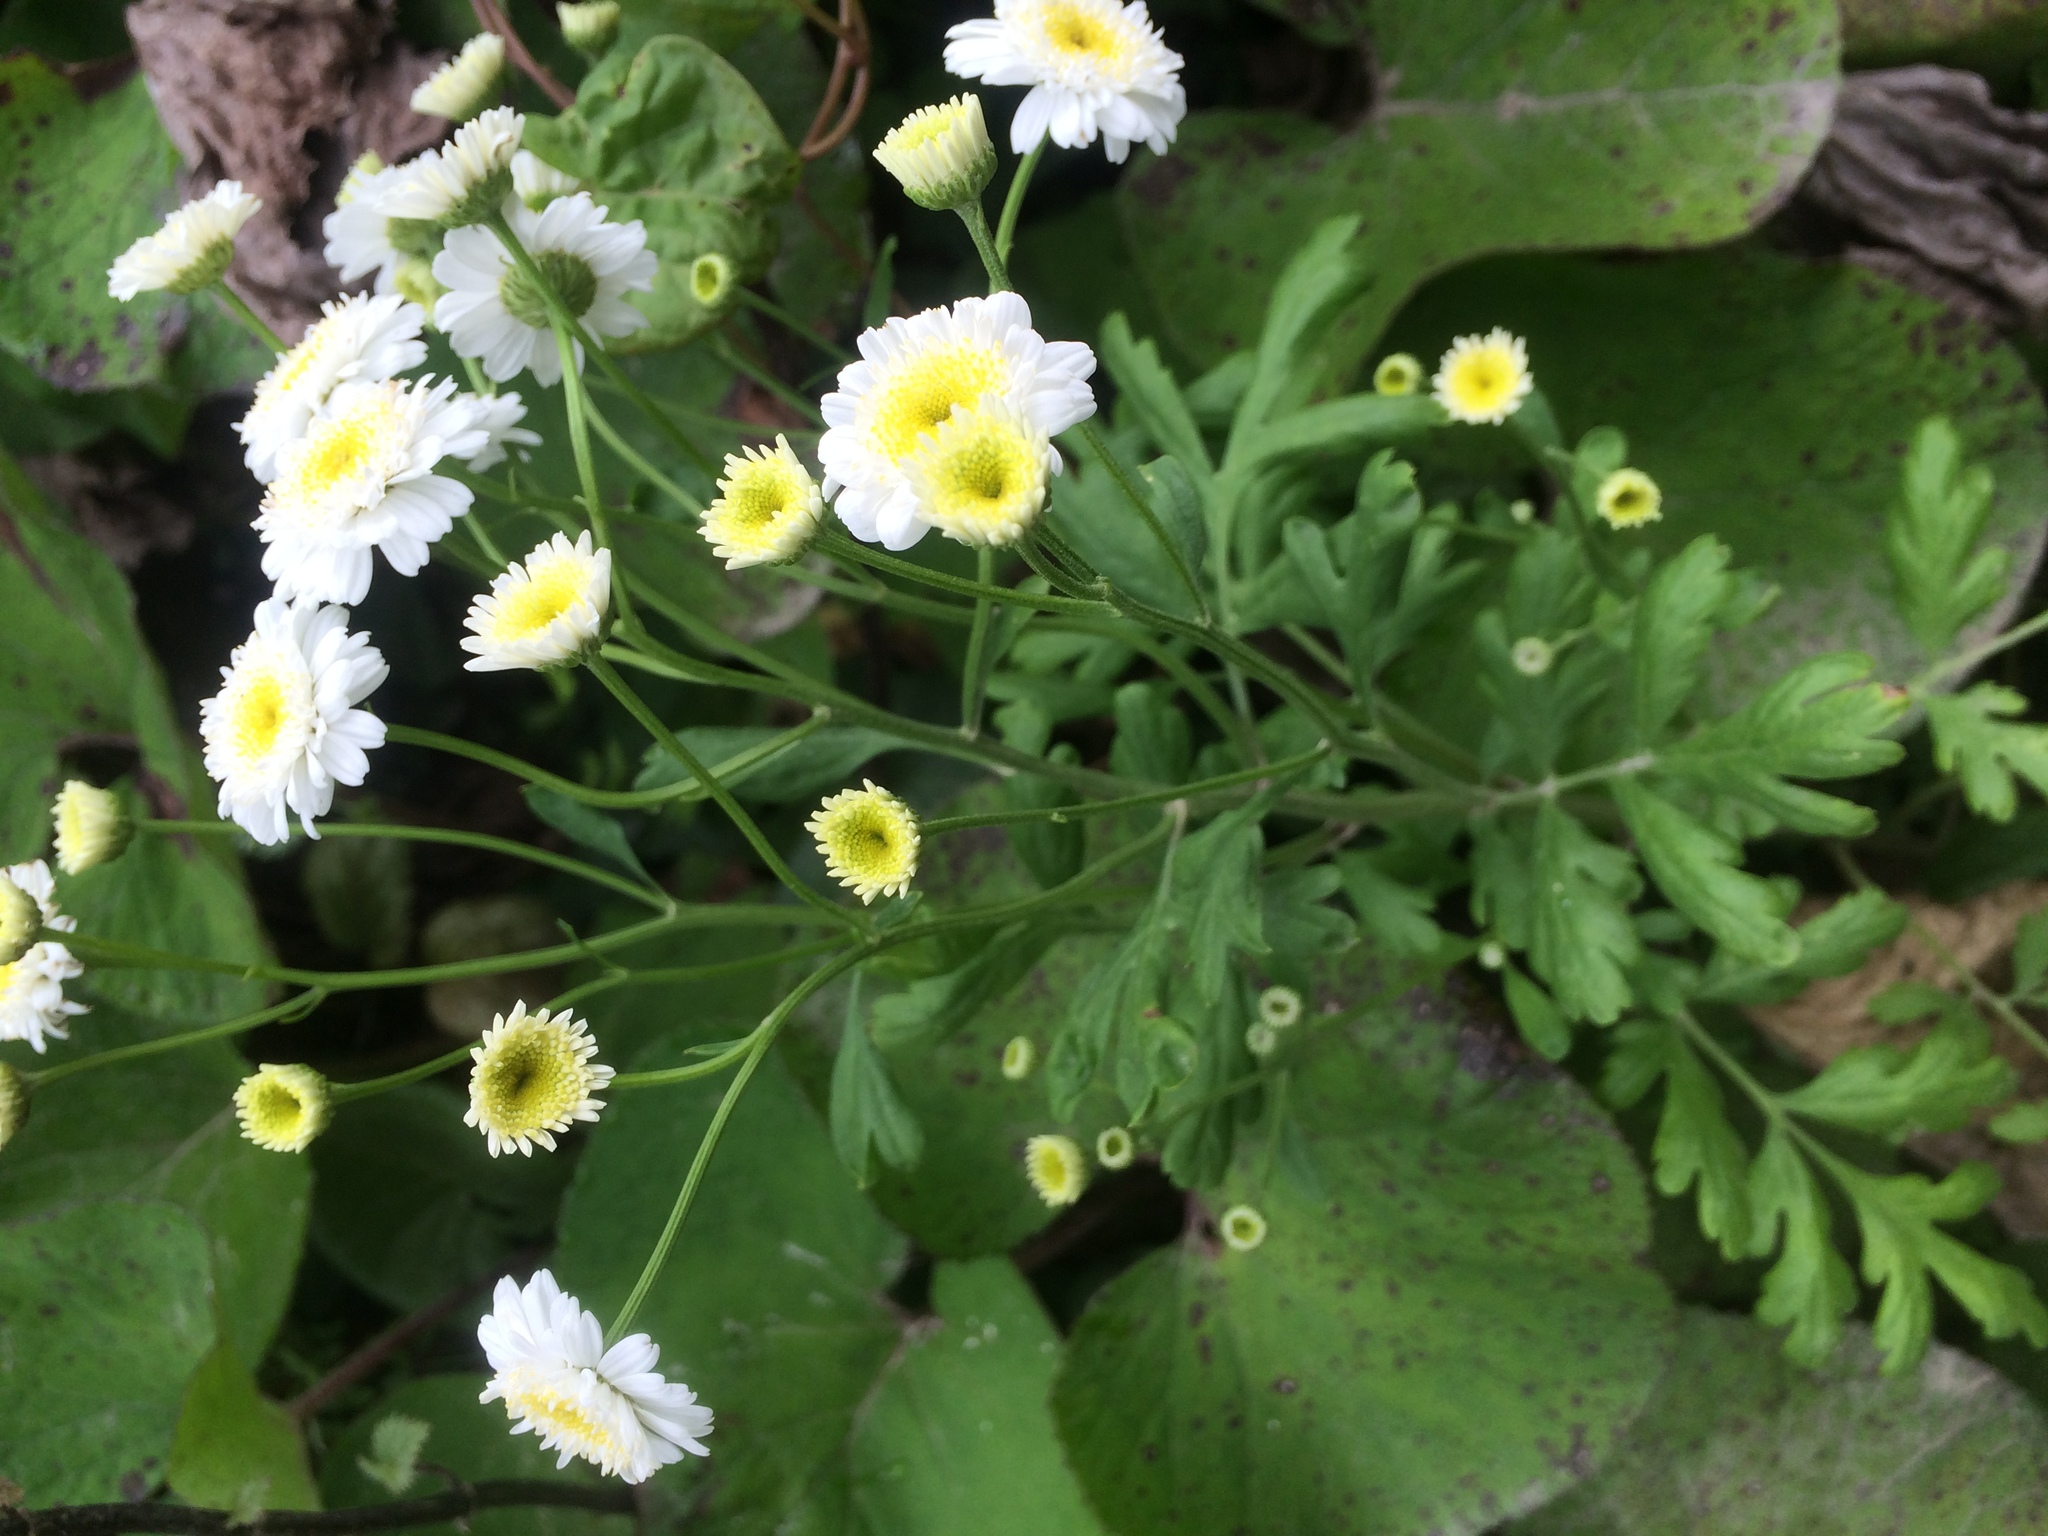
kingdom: Plantae
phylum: Tracheophyta
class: Magnoliopsida
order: Asterales
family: Asteraceae
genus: Tanacetum
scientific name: Tanacetum parthenium
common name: Feverfew
